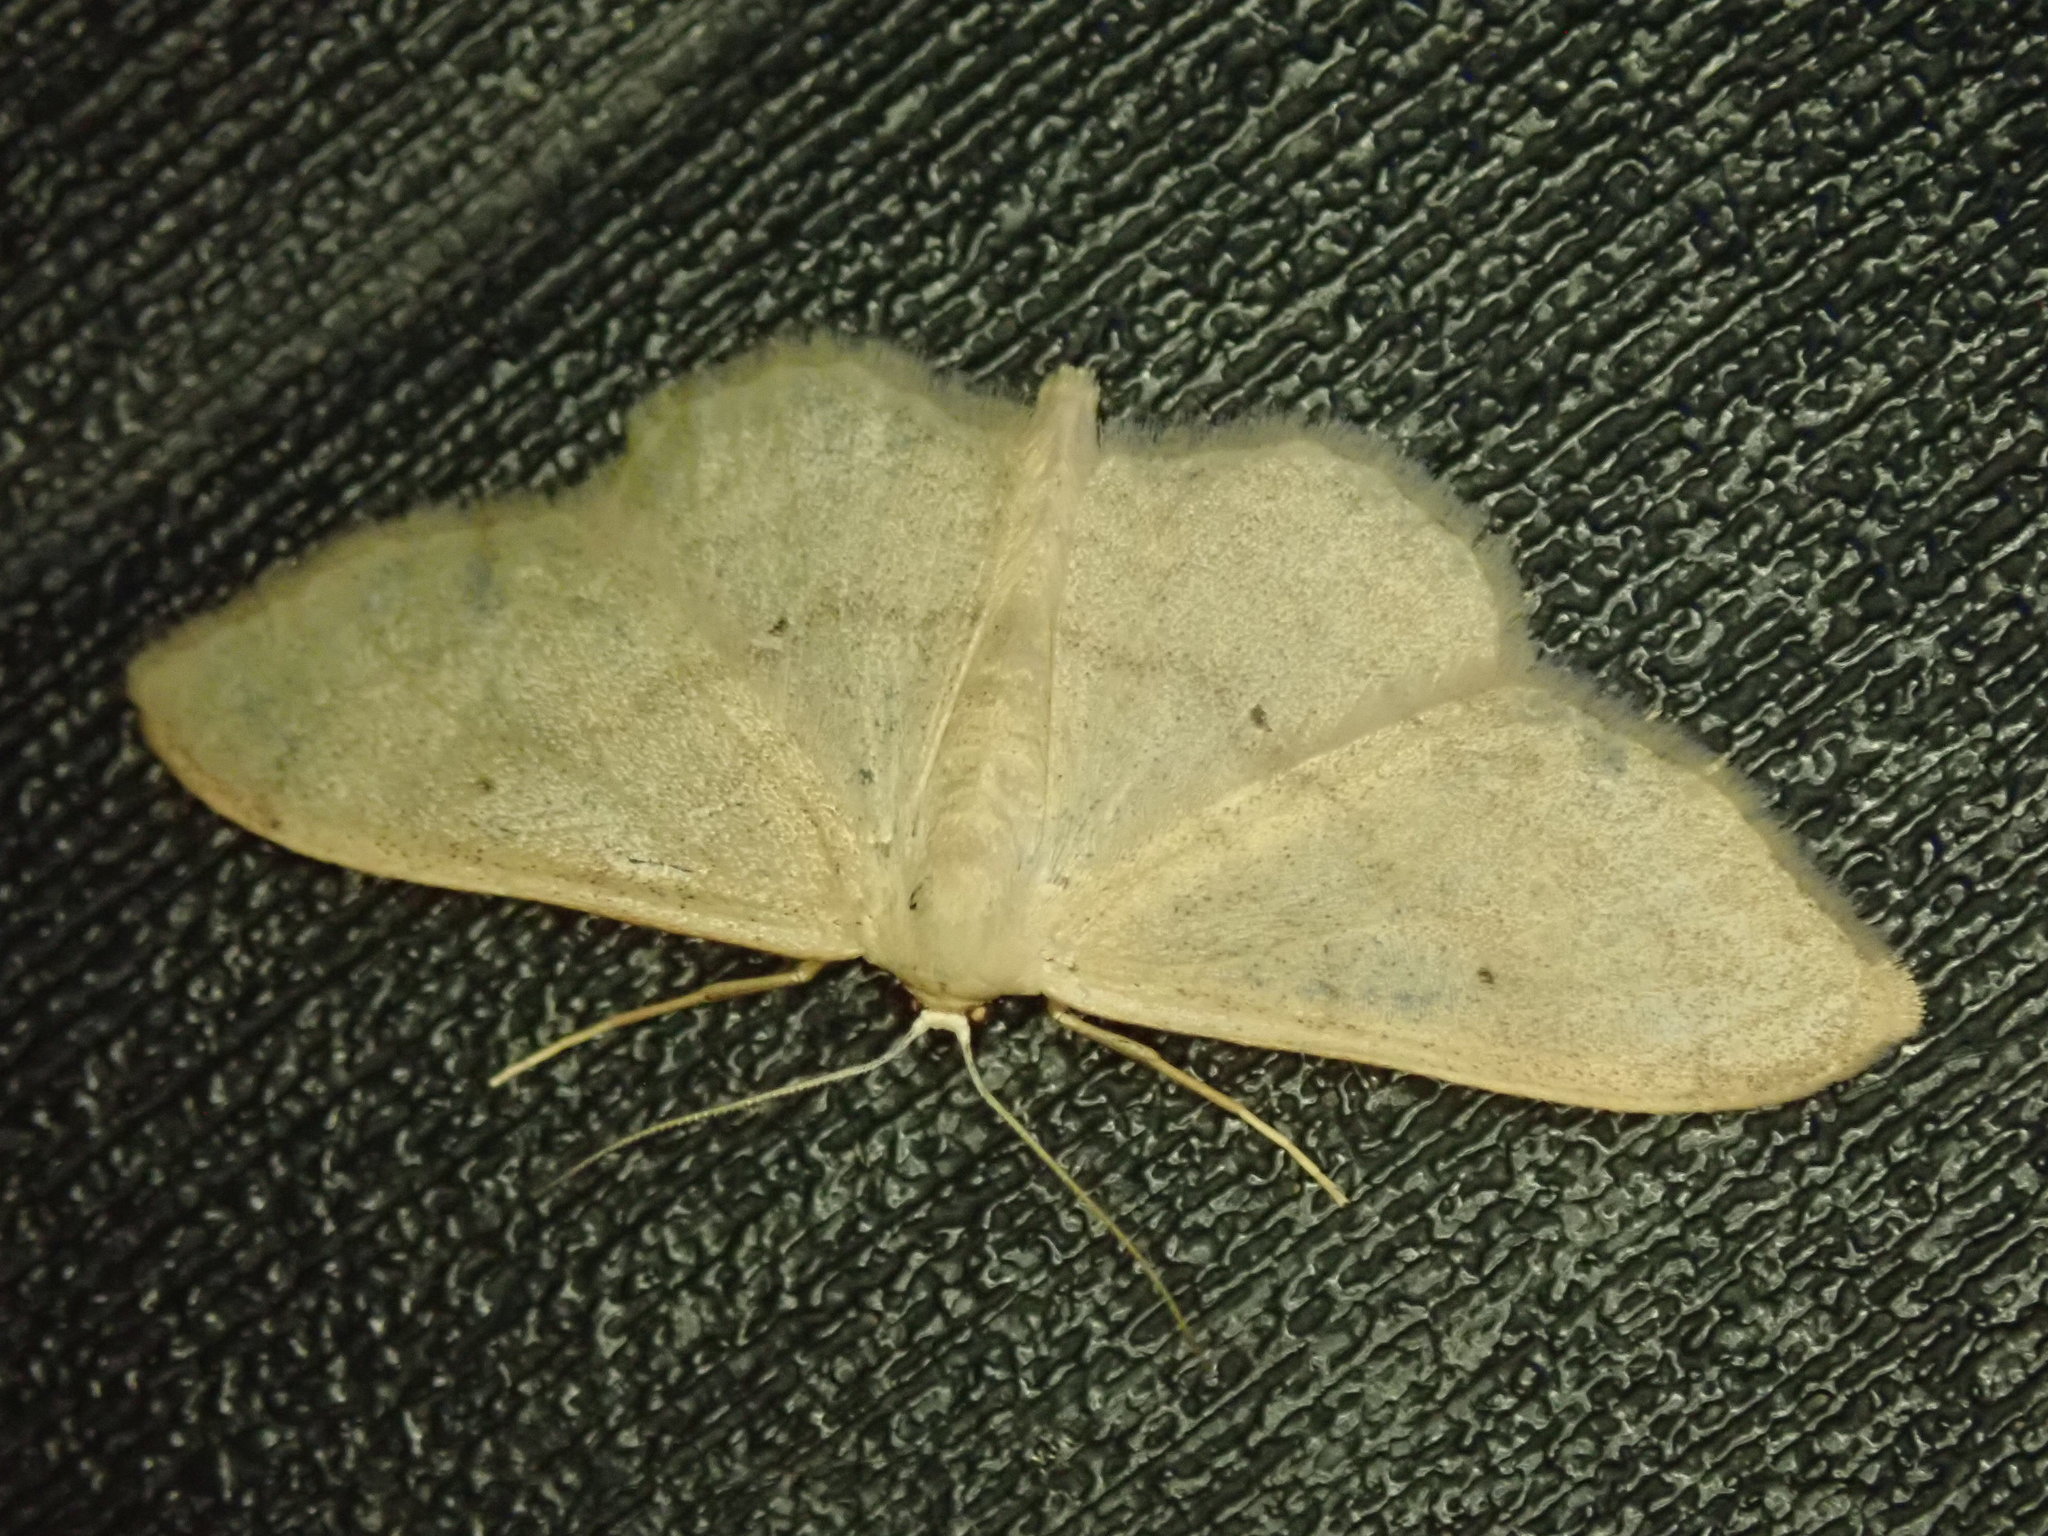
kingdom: Animalia
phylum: Arthropoda
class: Insecta
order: Lepidoptera
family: Geometridae
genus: Idaea
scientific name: Idaea straminata
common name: Plain wave
